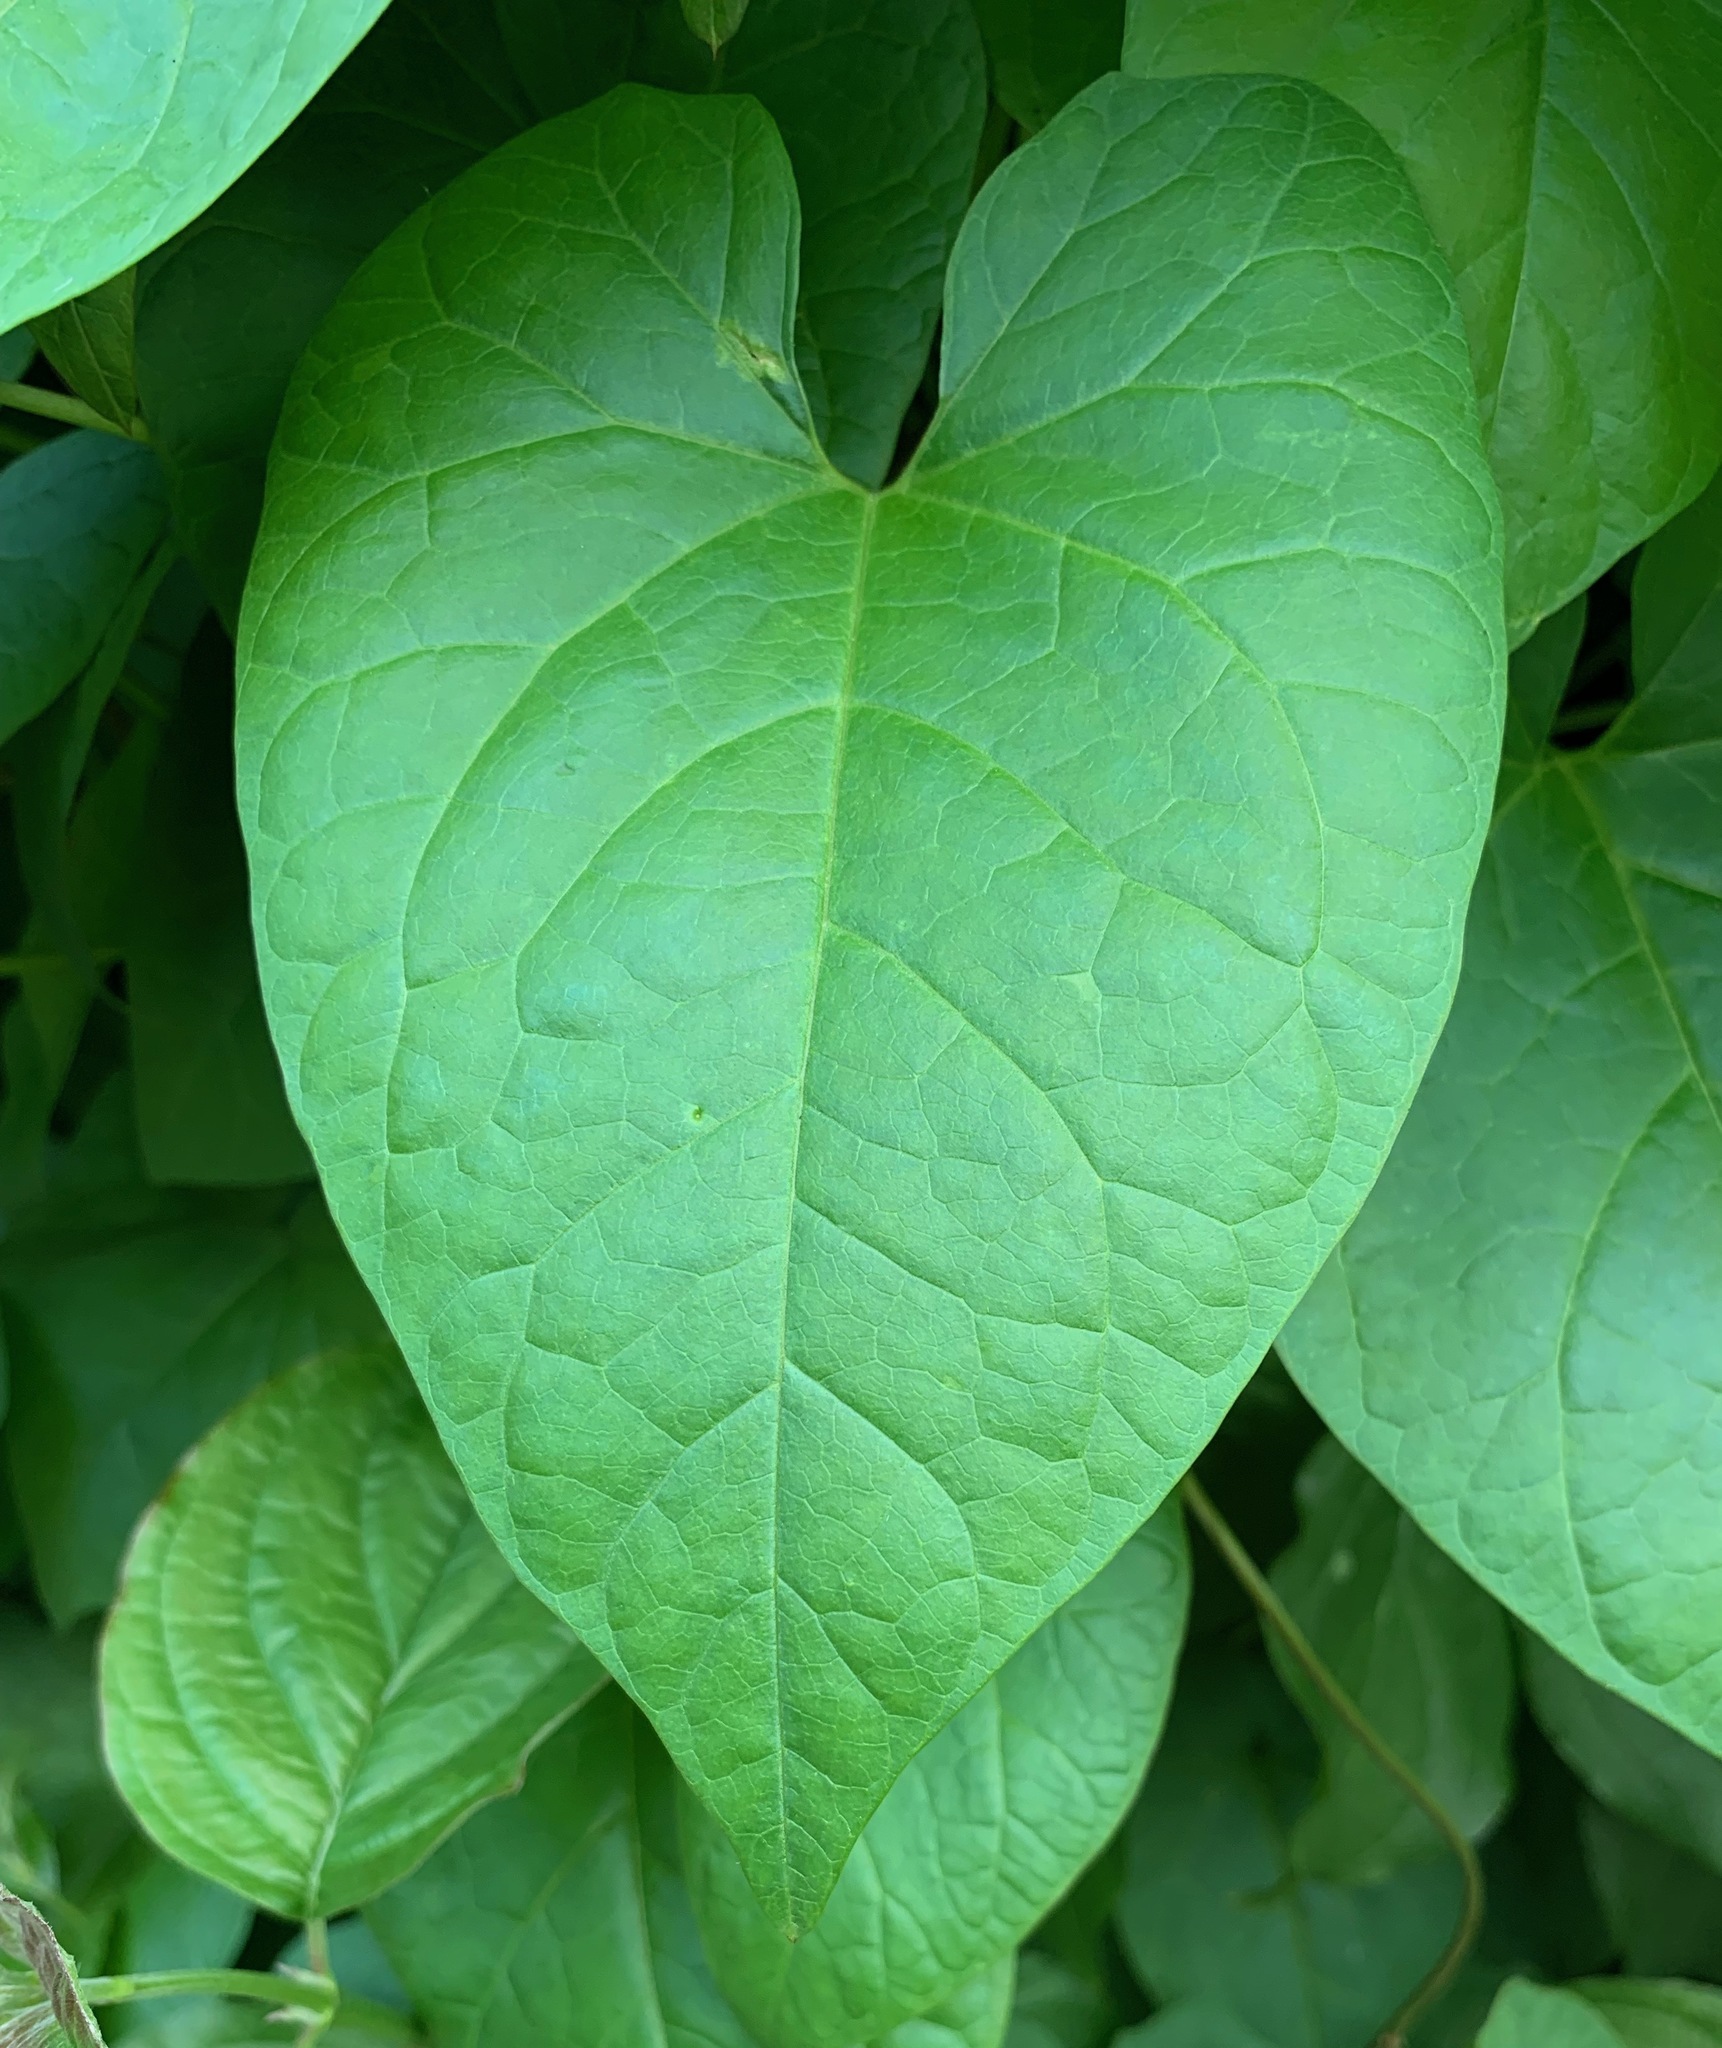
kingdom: Plantae
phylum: Tracheophyta
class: Magnoliopsida
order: Solanales
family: Convolvulaceae
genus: Calystegia
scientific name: Calystegia silvatica
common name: Large bindweed
